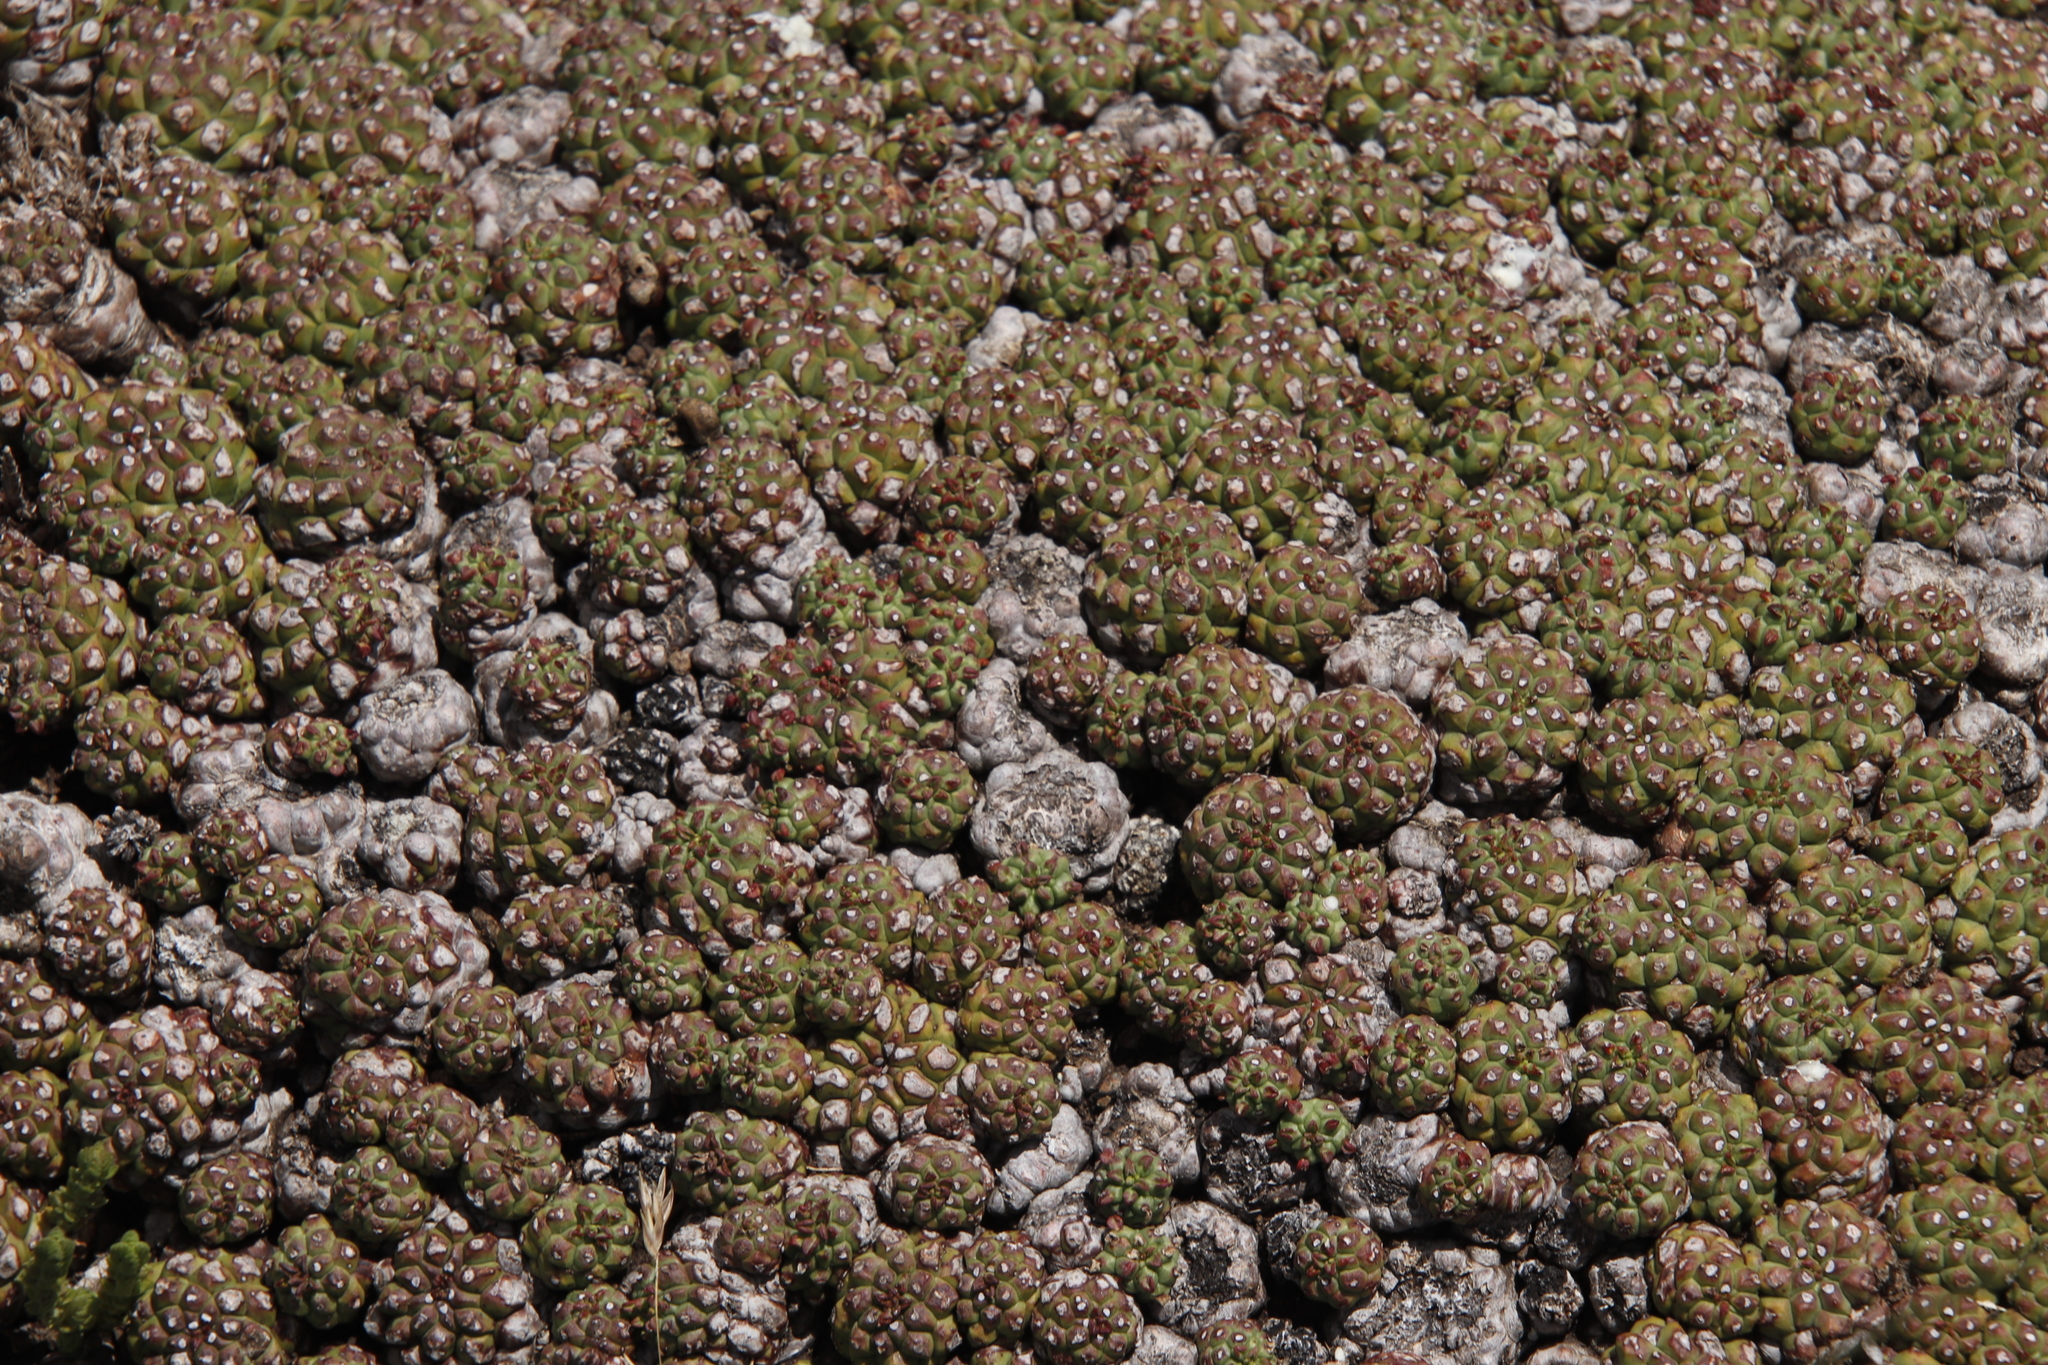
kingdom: Plantae
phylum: Tracheophyta
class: Magnoliopsida
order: Malpighiales
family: Euphorbiaceae
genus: Euphorbia
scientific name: Euphorbia clavarioides
